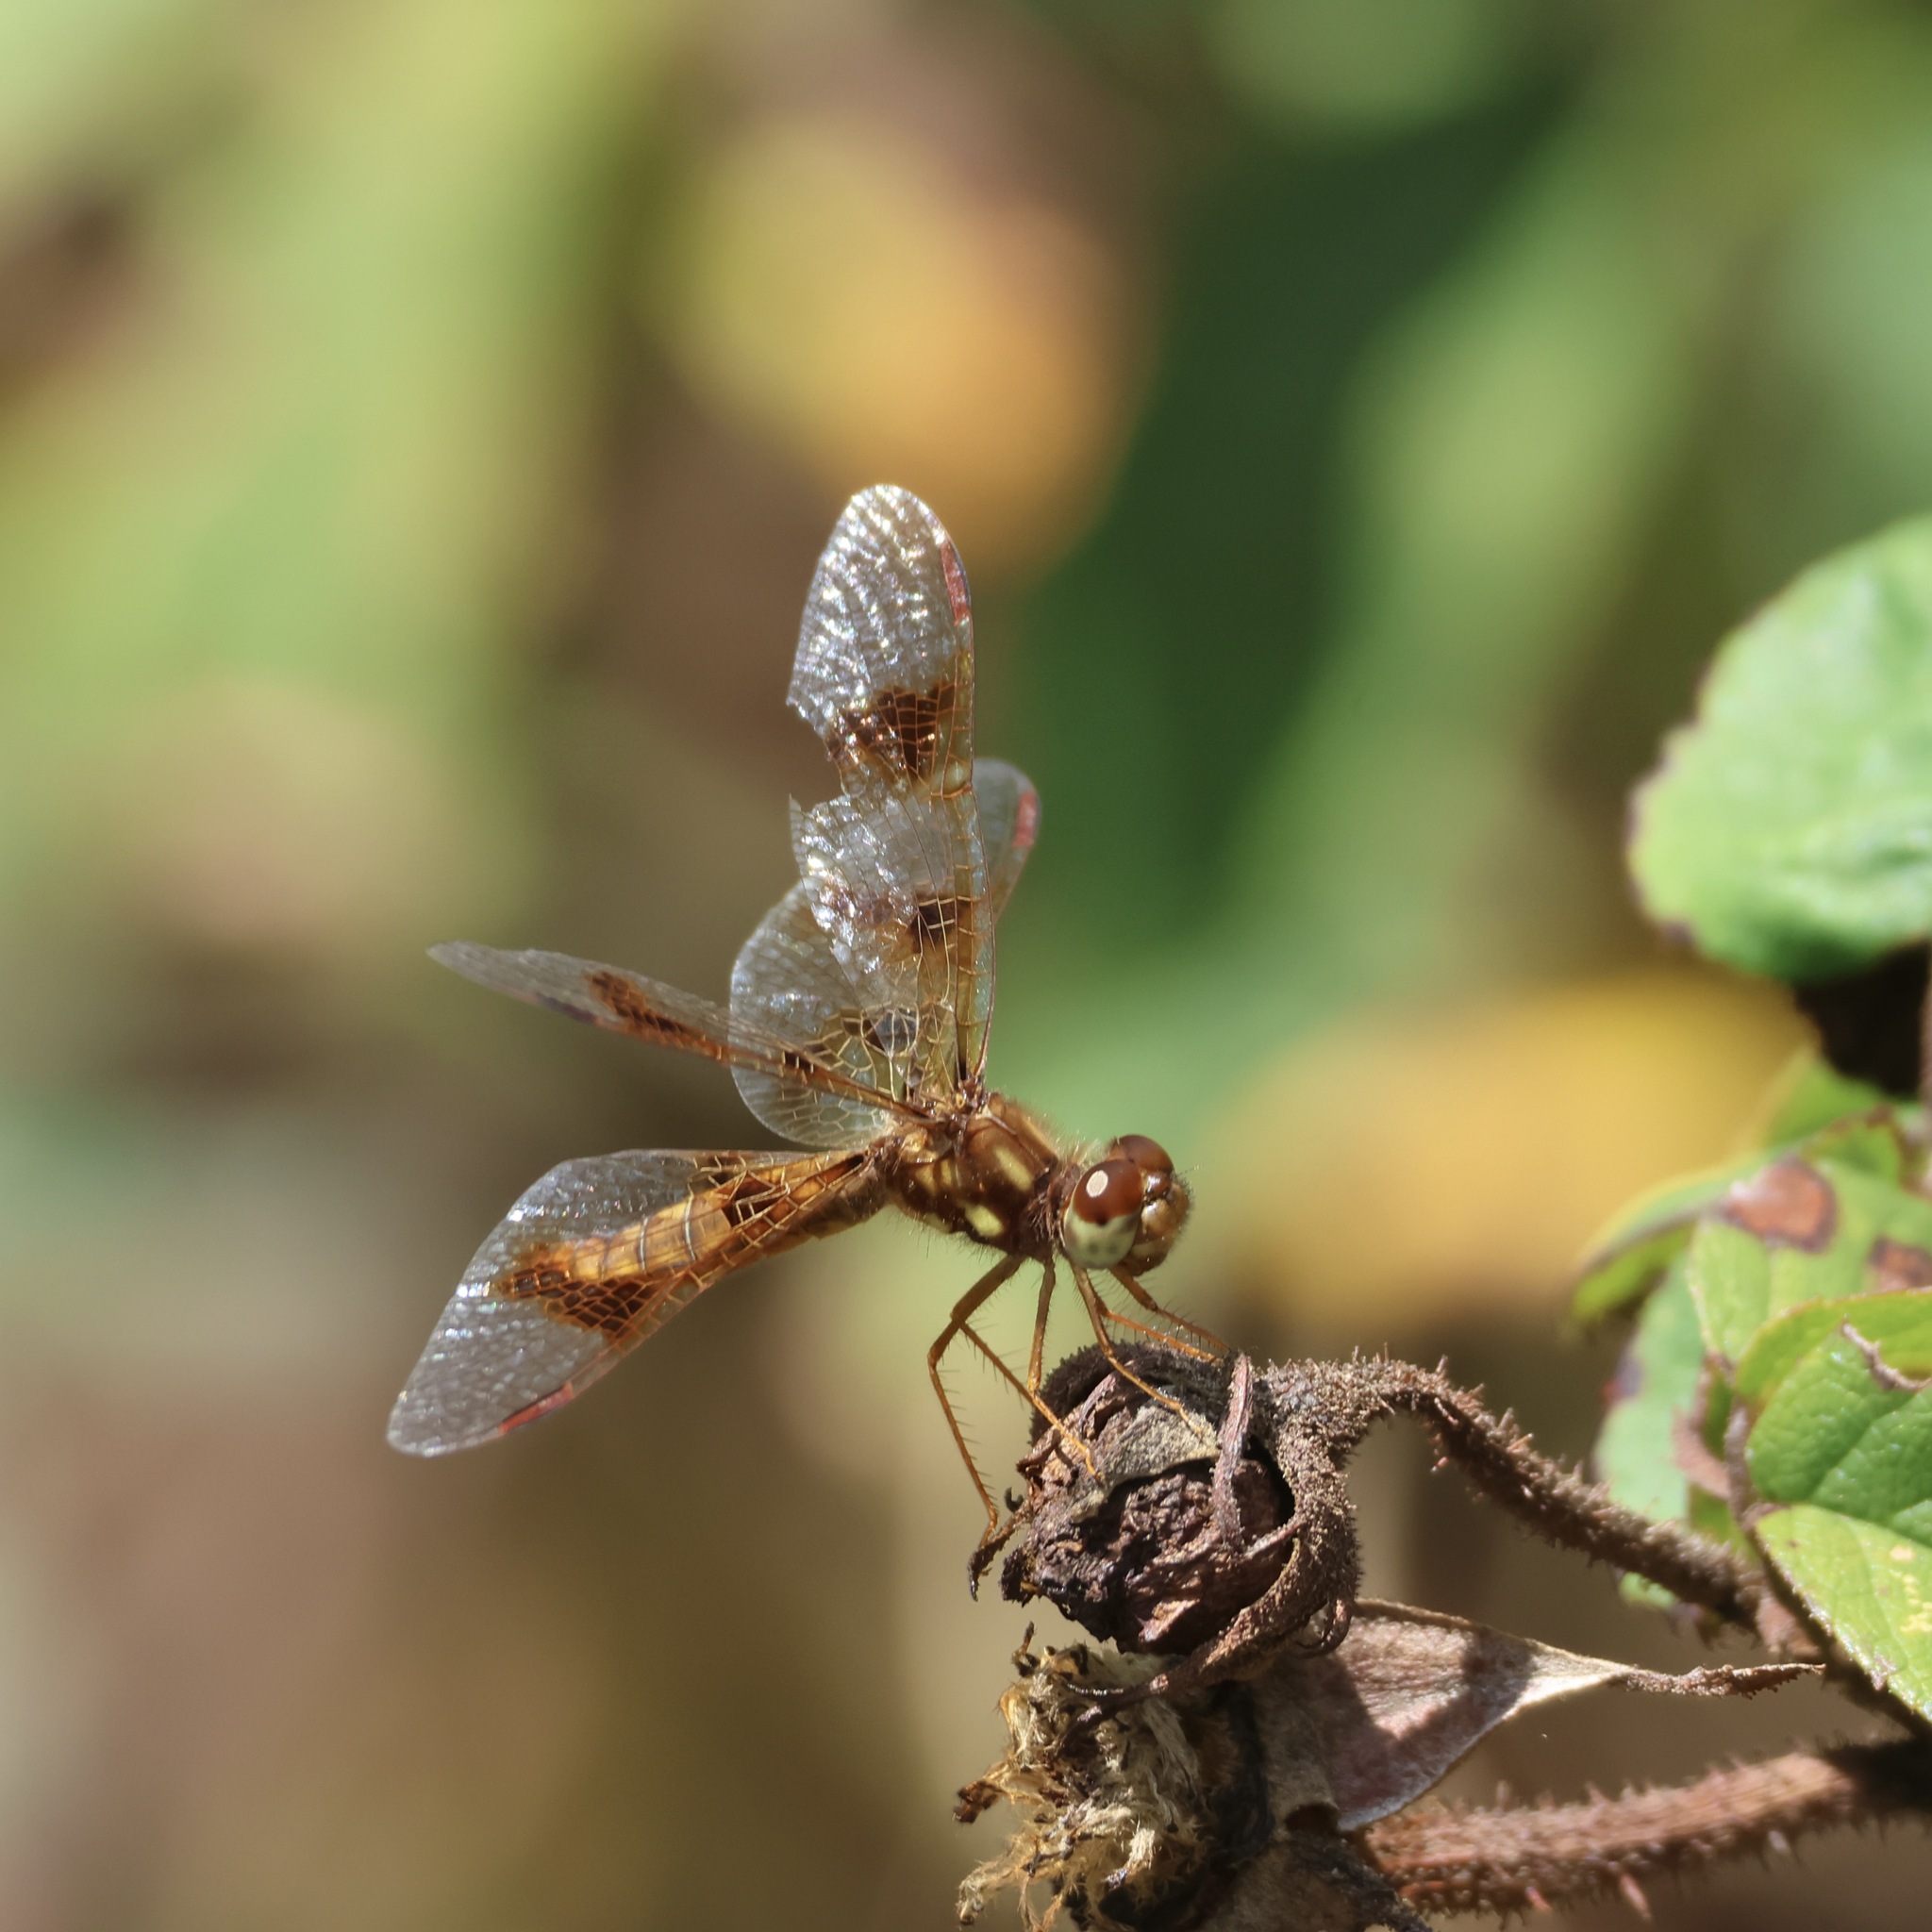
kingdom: Animalia
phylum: Arthropoda
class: Insecta
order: Odonata
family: Libellulidae
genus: Perithemis
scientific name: Perithemis tenera
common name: Eastern amberwing
